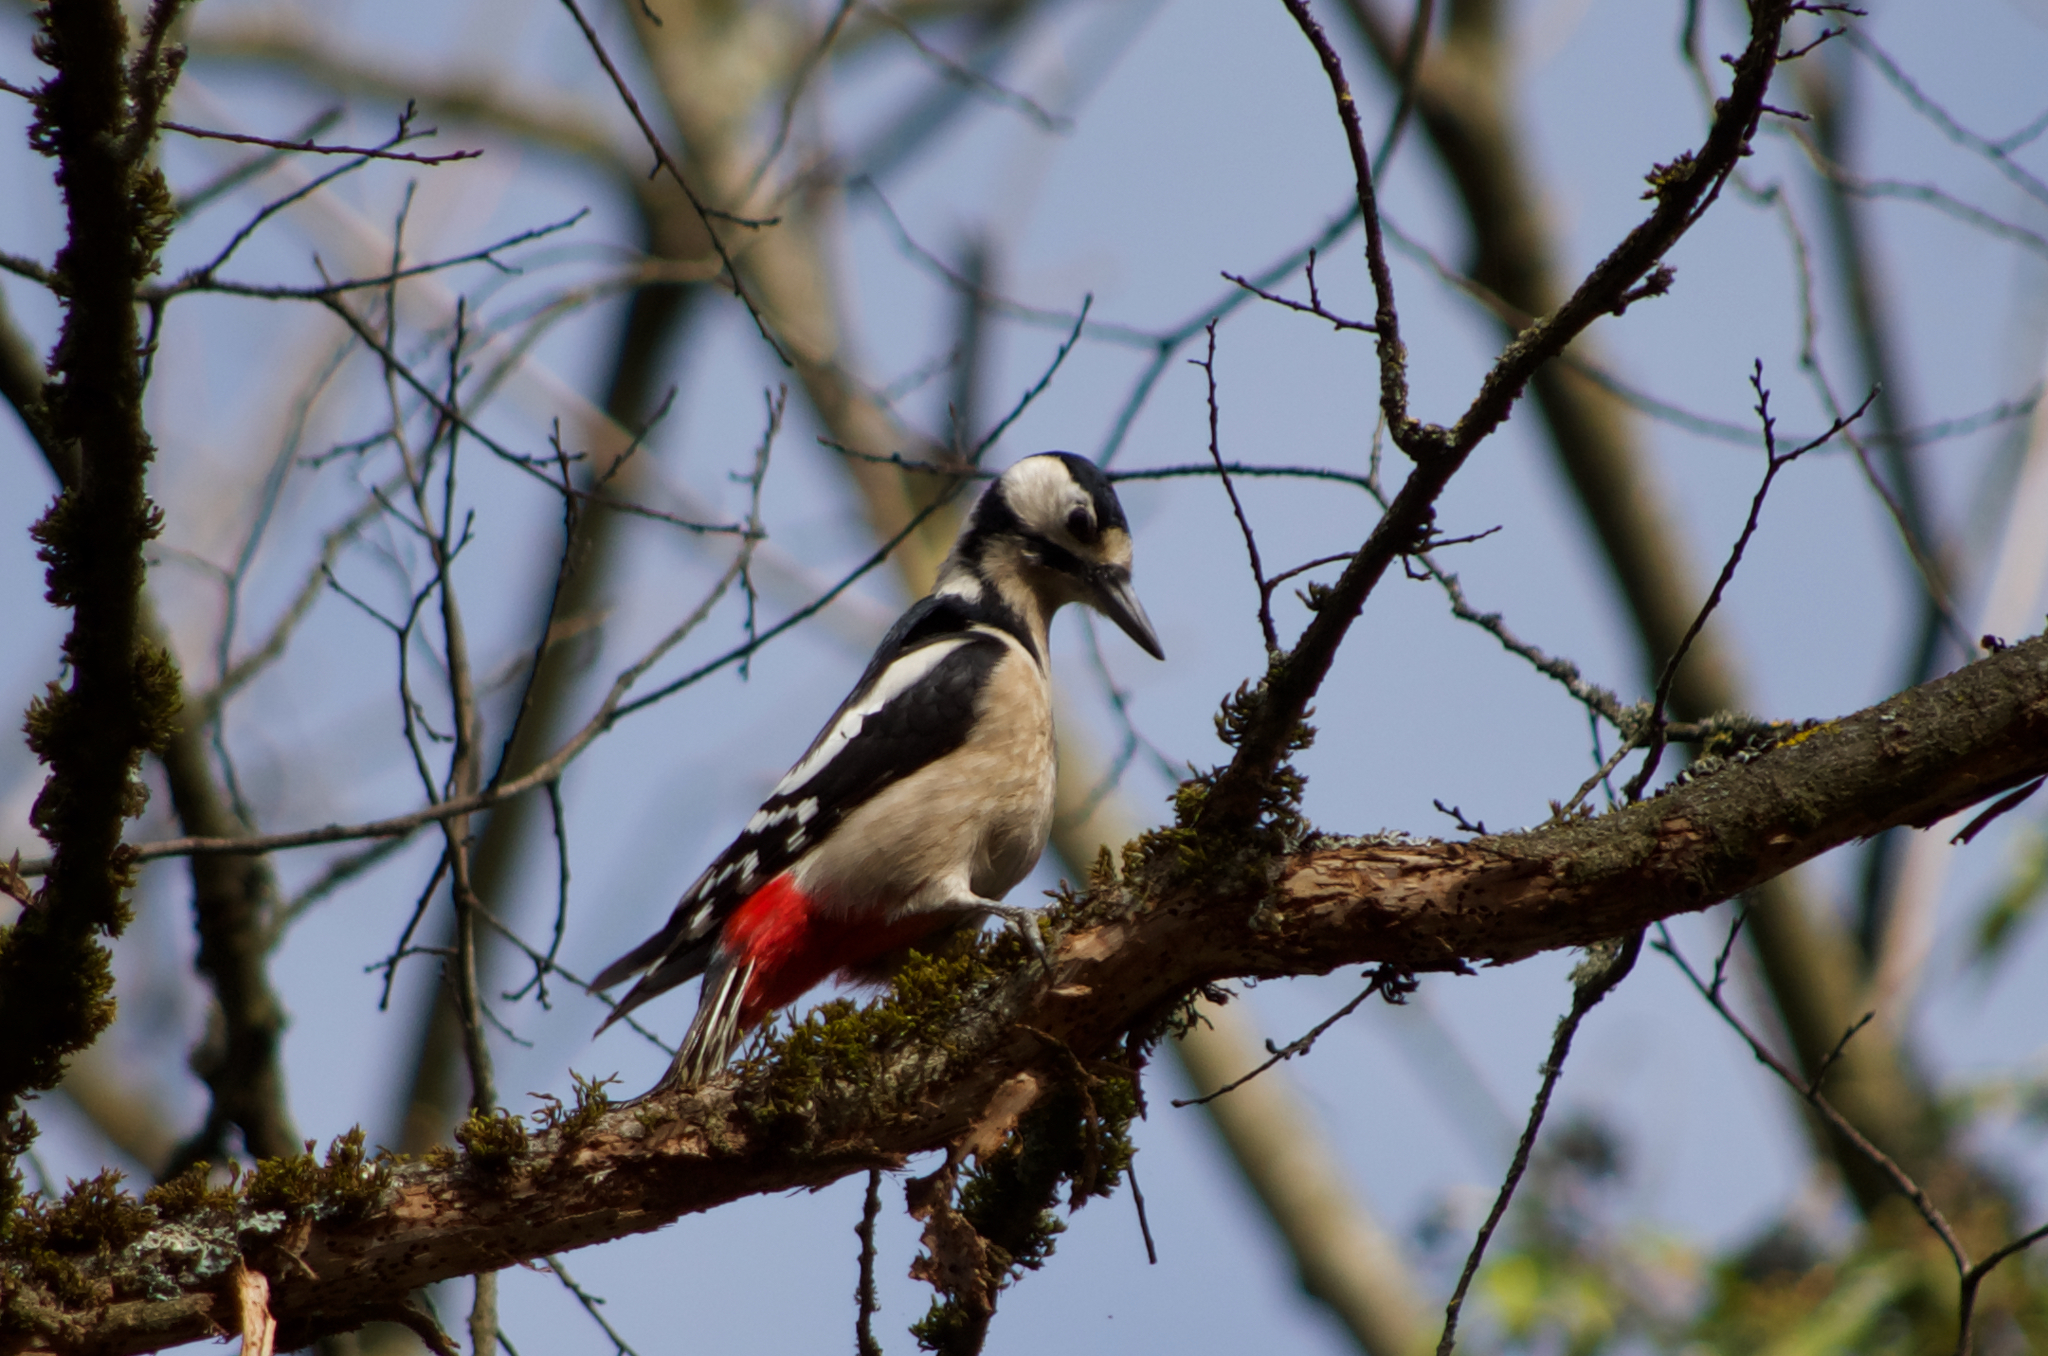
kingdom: Animalia
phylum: Chordata
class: Aves
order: Piciformes
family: Picidae
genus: Dendrocopos
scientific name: Dendrocopos major
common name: Great spotted woodpecker
